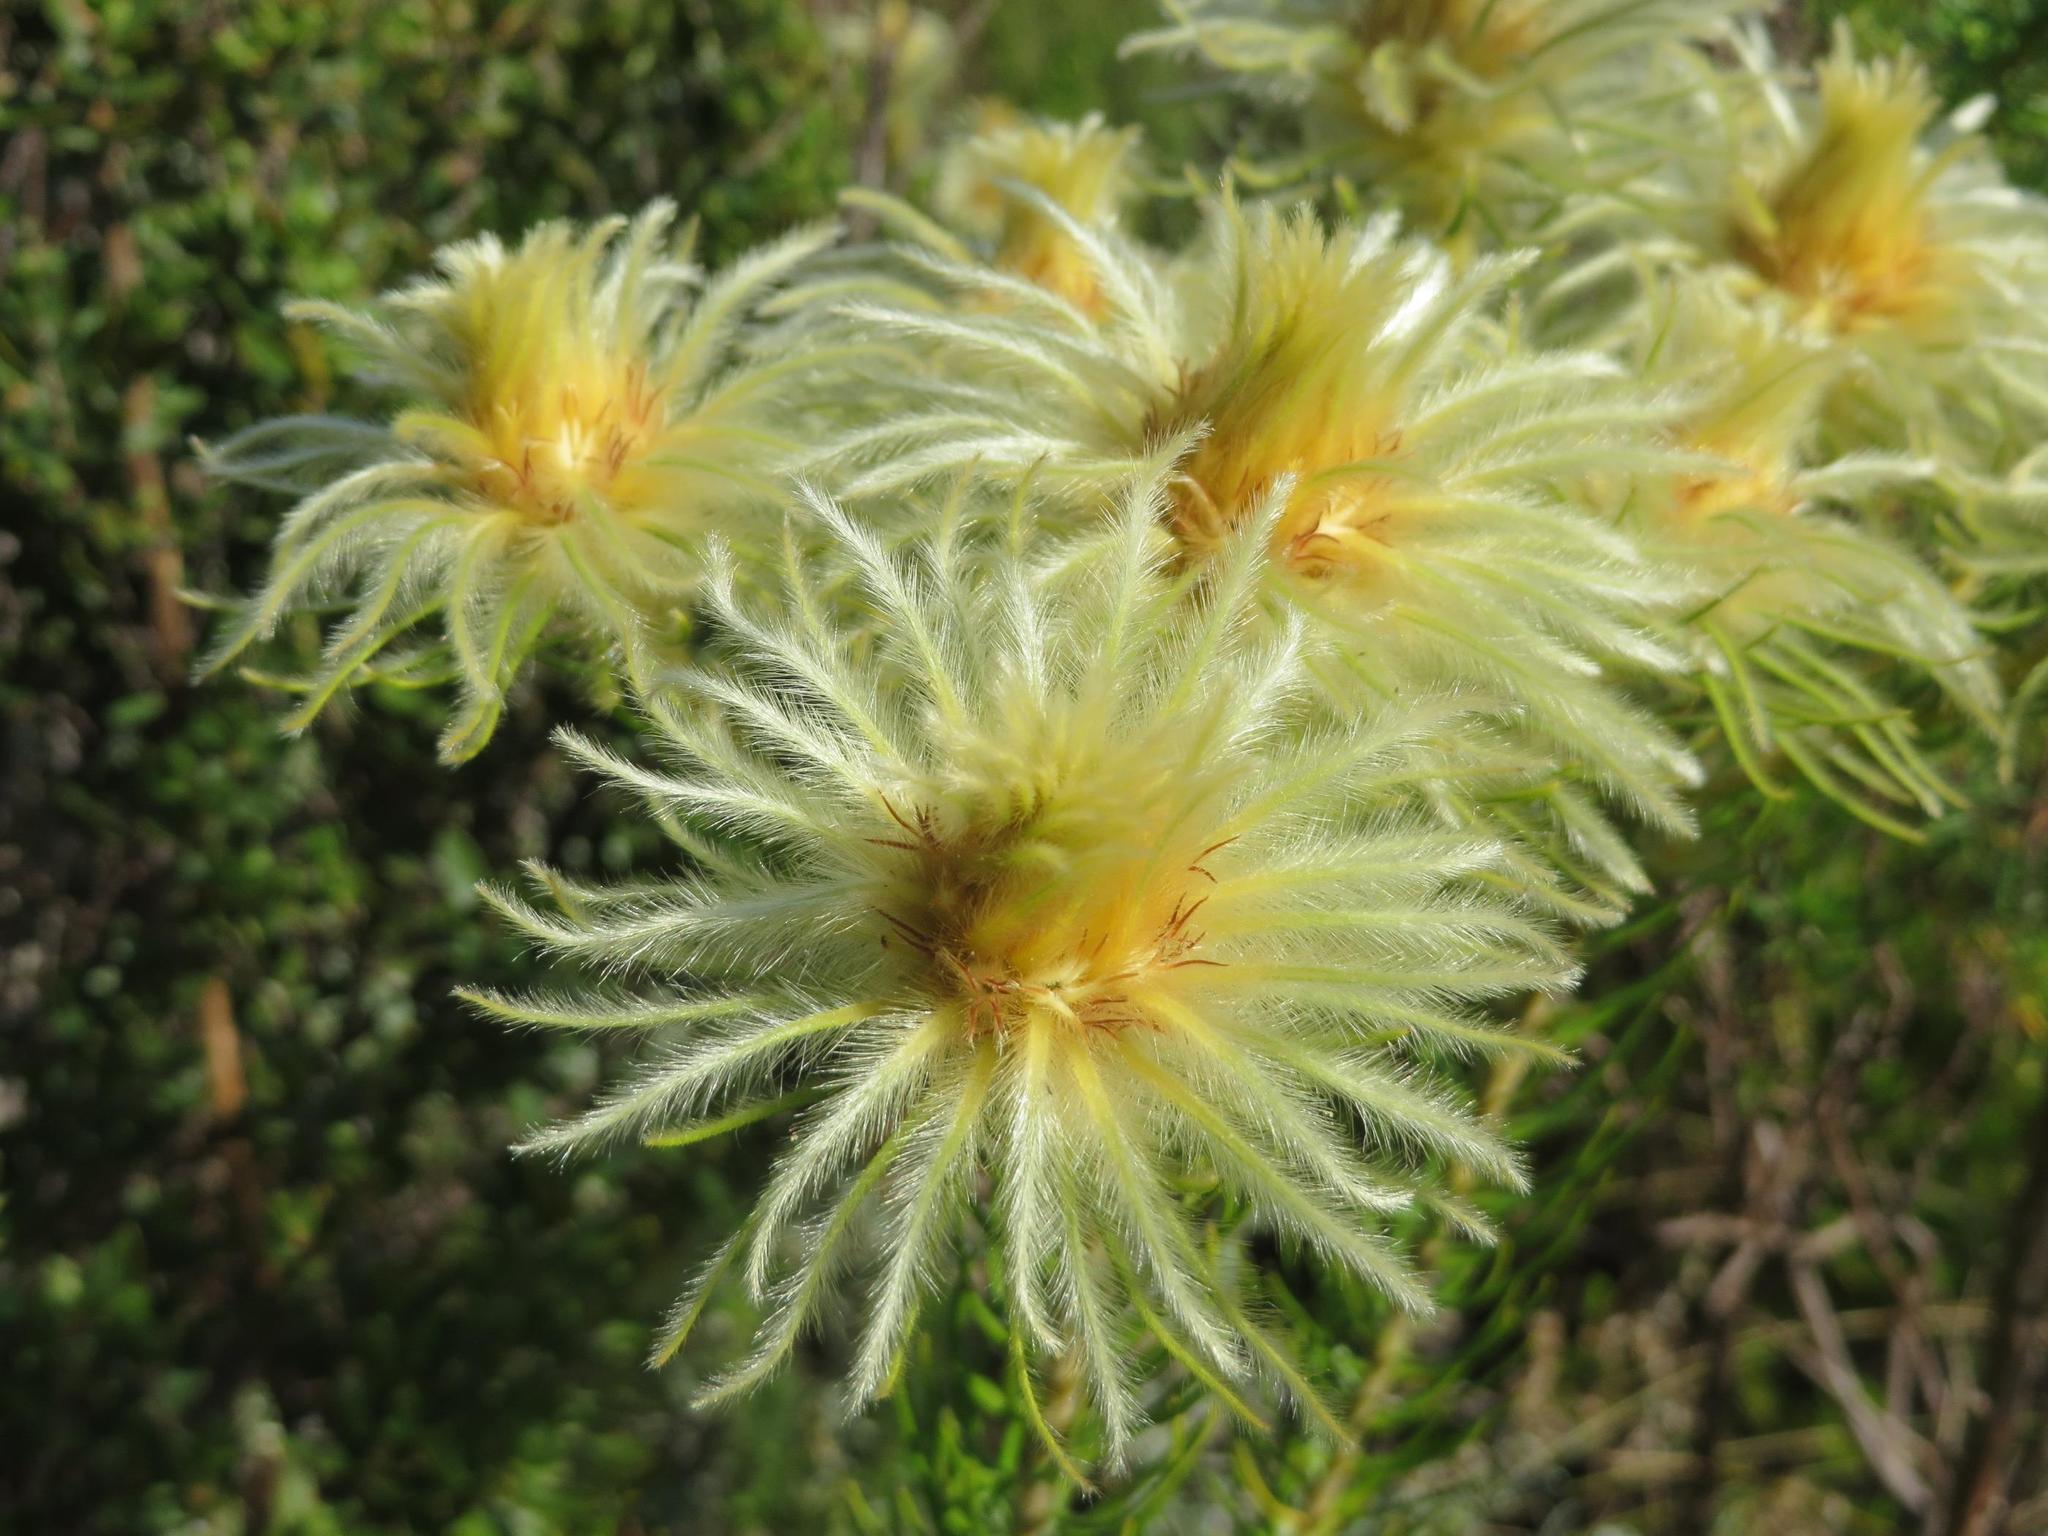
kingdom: Plantae
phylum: Tracheophyta
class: Magnoliopsida
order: Rosales
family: Rhamnaceae
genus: Phylica
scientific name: Phylica pubescens
